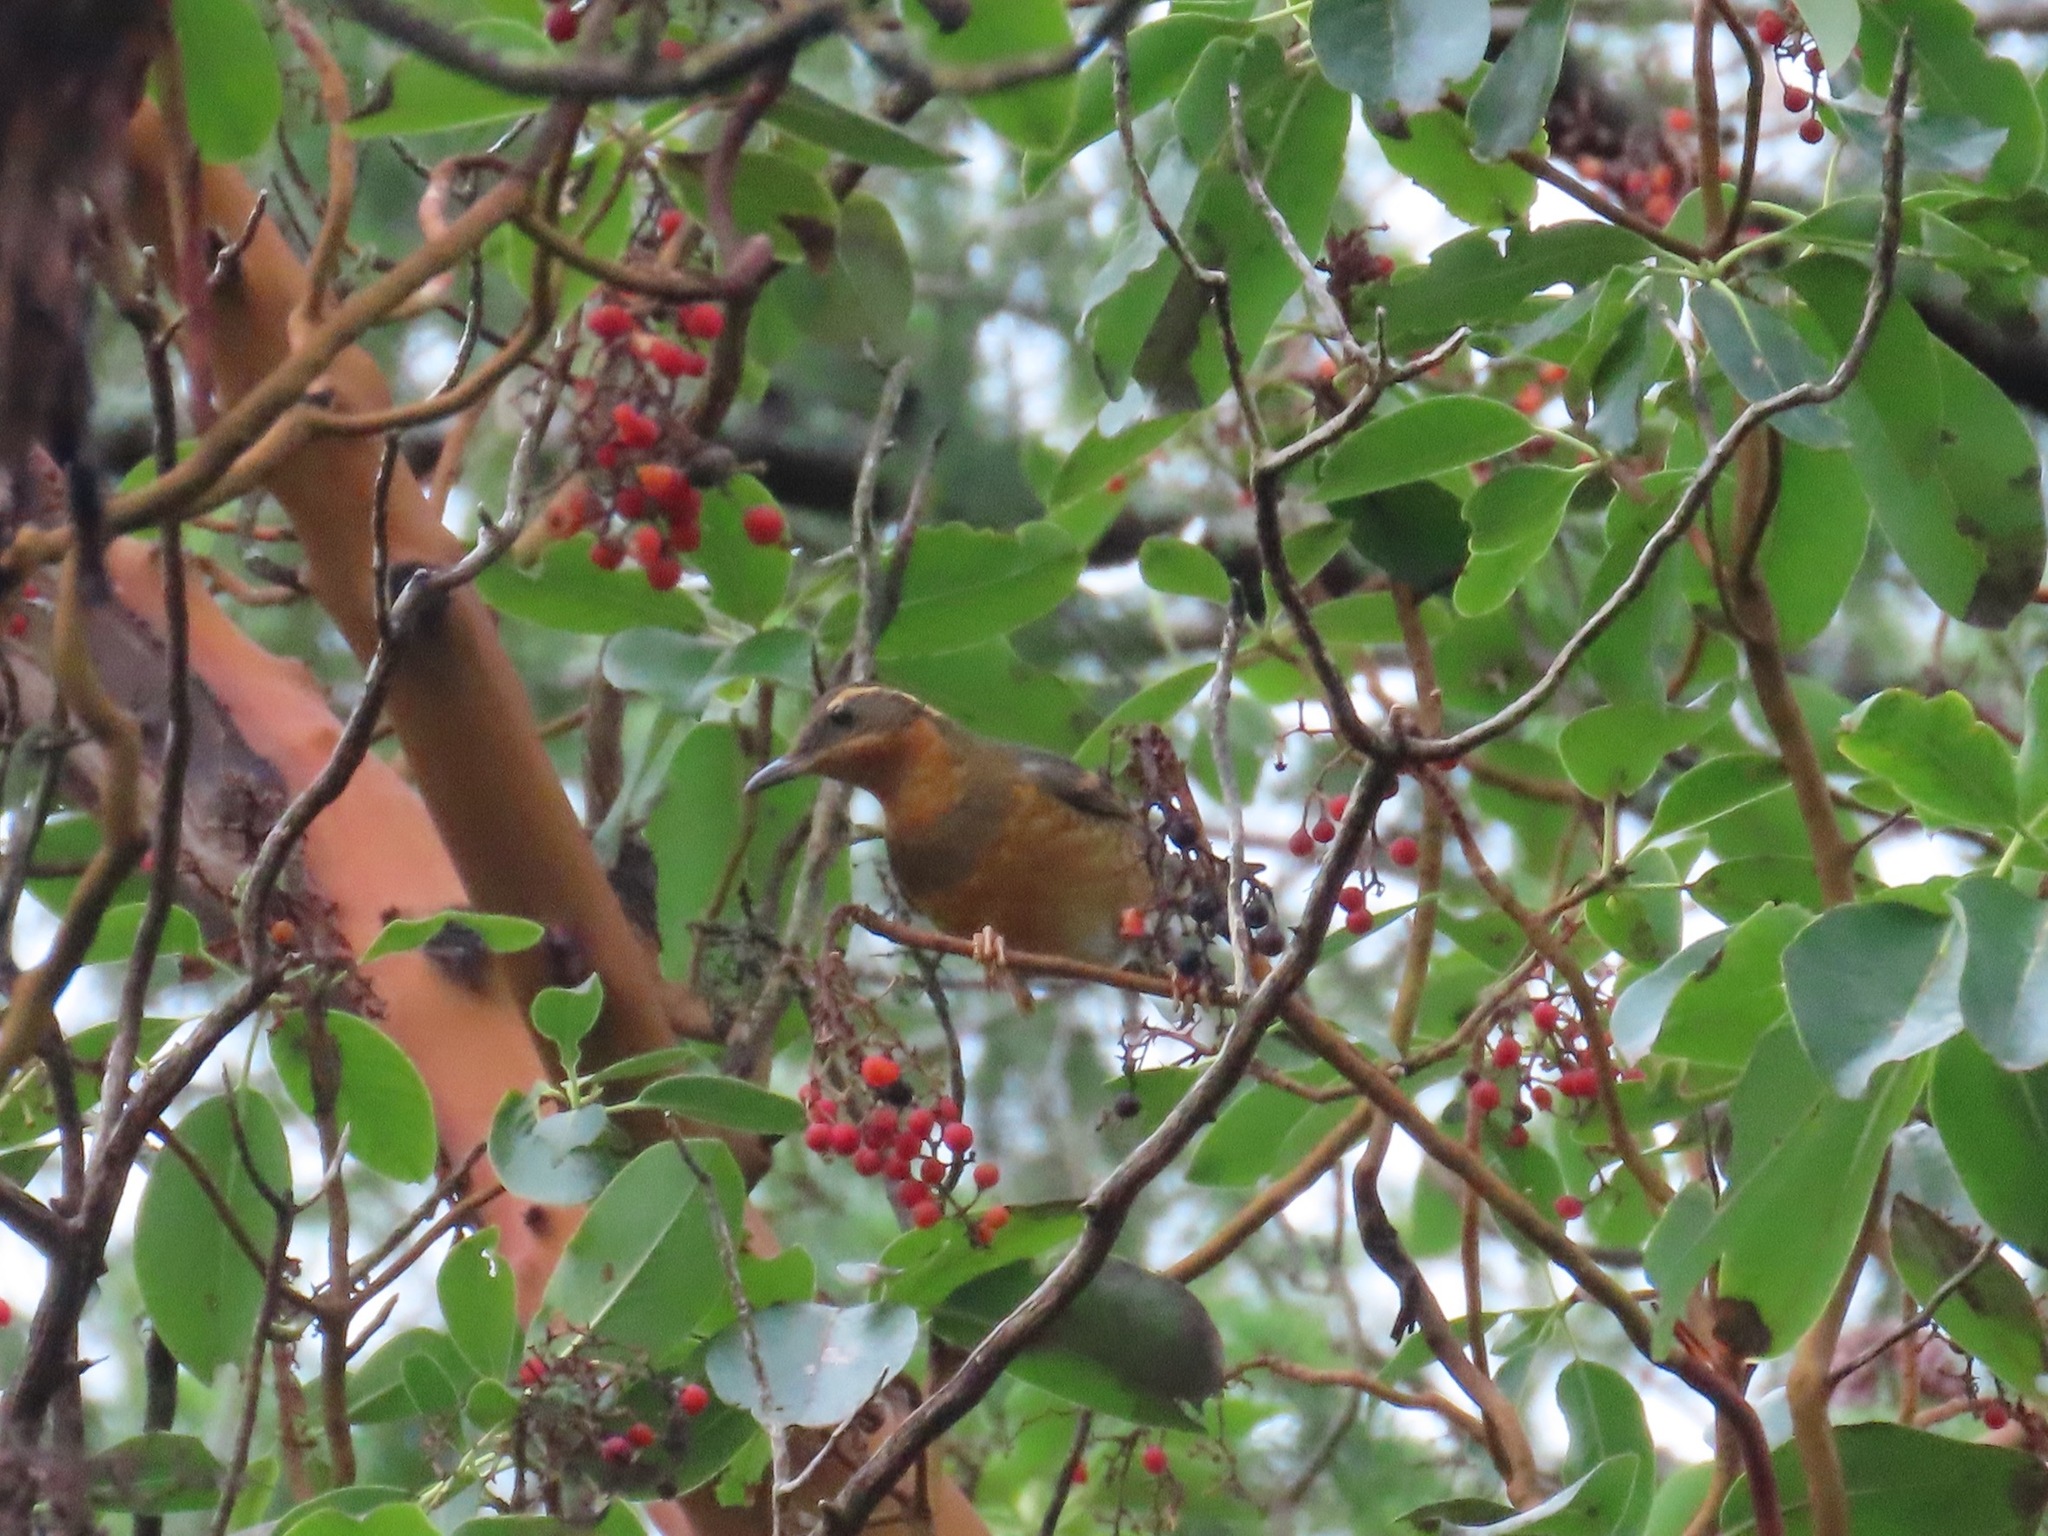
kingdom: Animalia
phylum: Chordata
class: Aves
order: Passeriformes
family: Turdidae
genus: Ixoreus
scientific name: Ixoreus naevius
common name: Varied thrush
